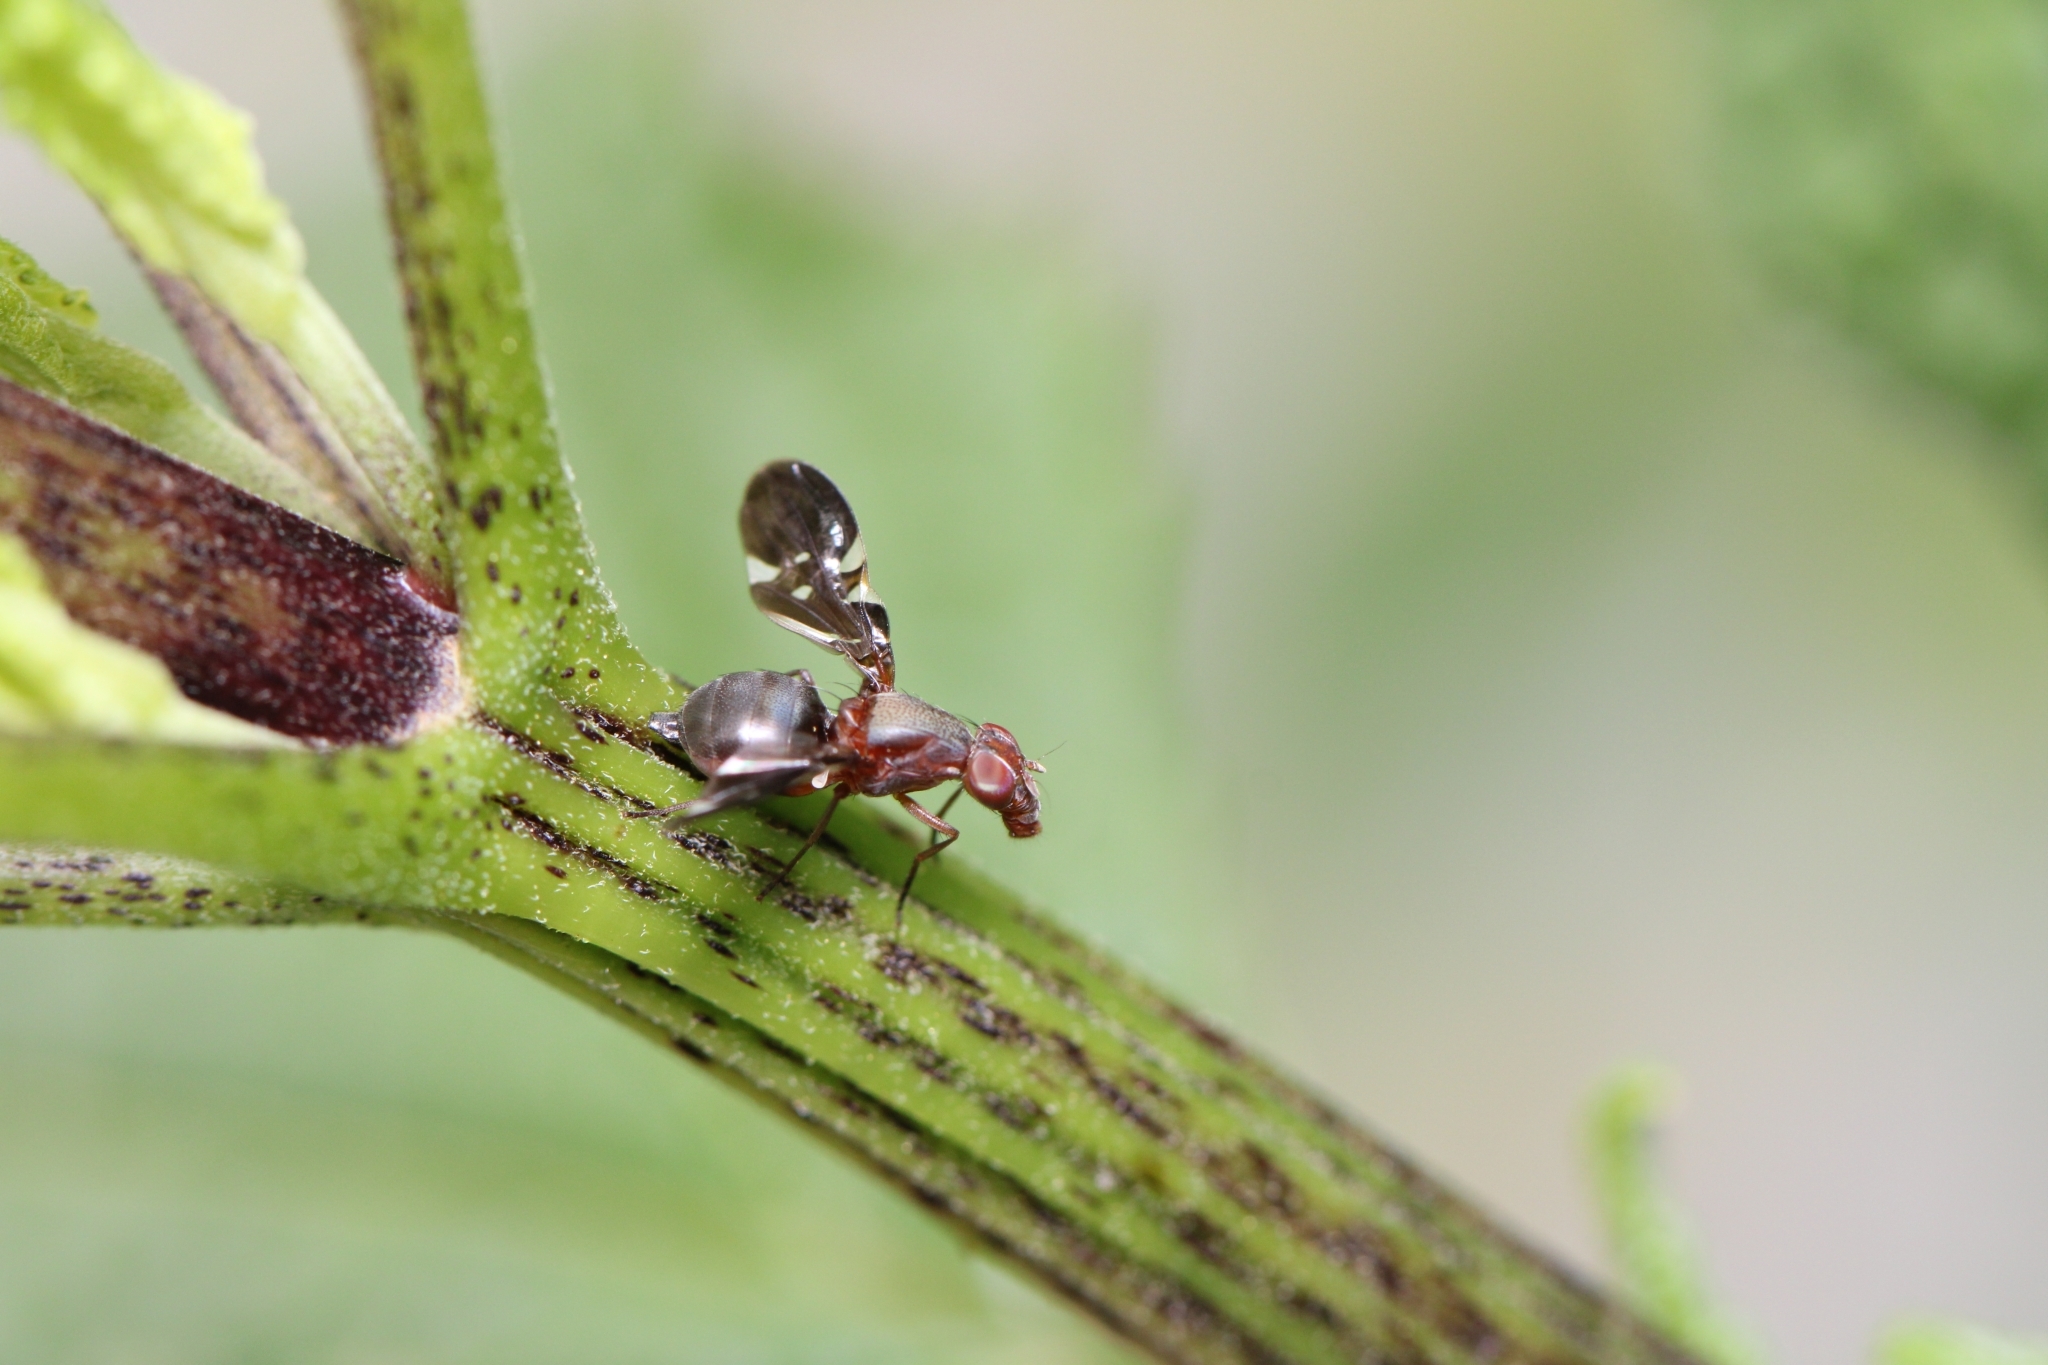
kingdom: Animalia
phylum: Arthropoda
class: Insecta
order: Diptera
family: Ulidiidae
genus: Delphinia
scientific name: Delphinia picta
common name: Common picture-winged fly
